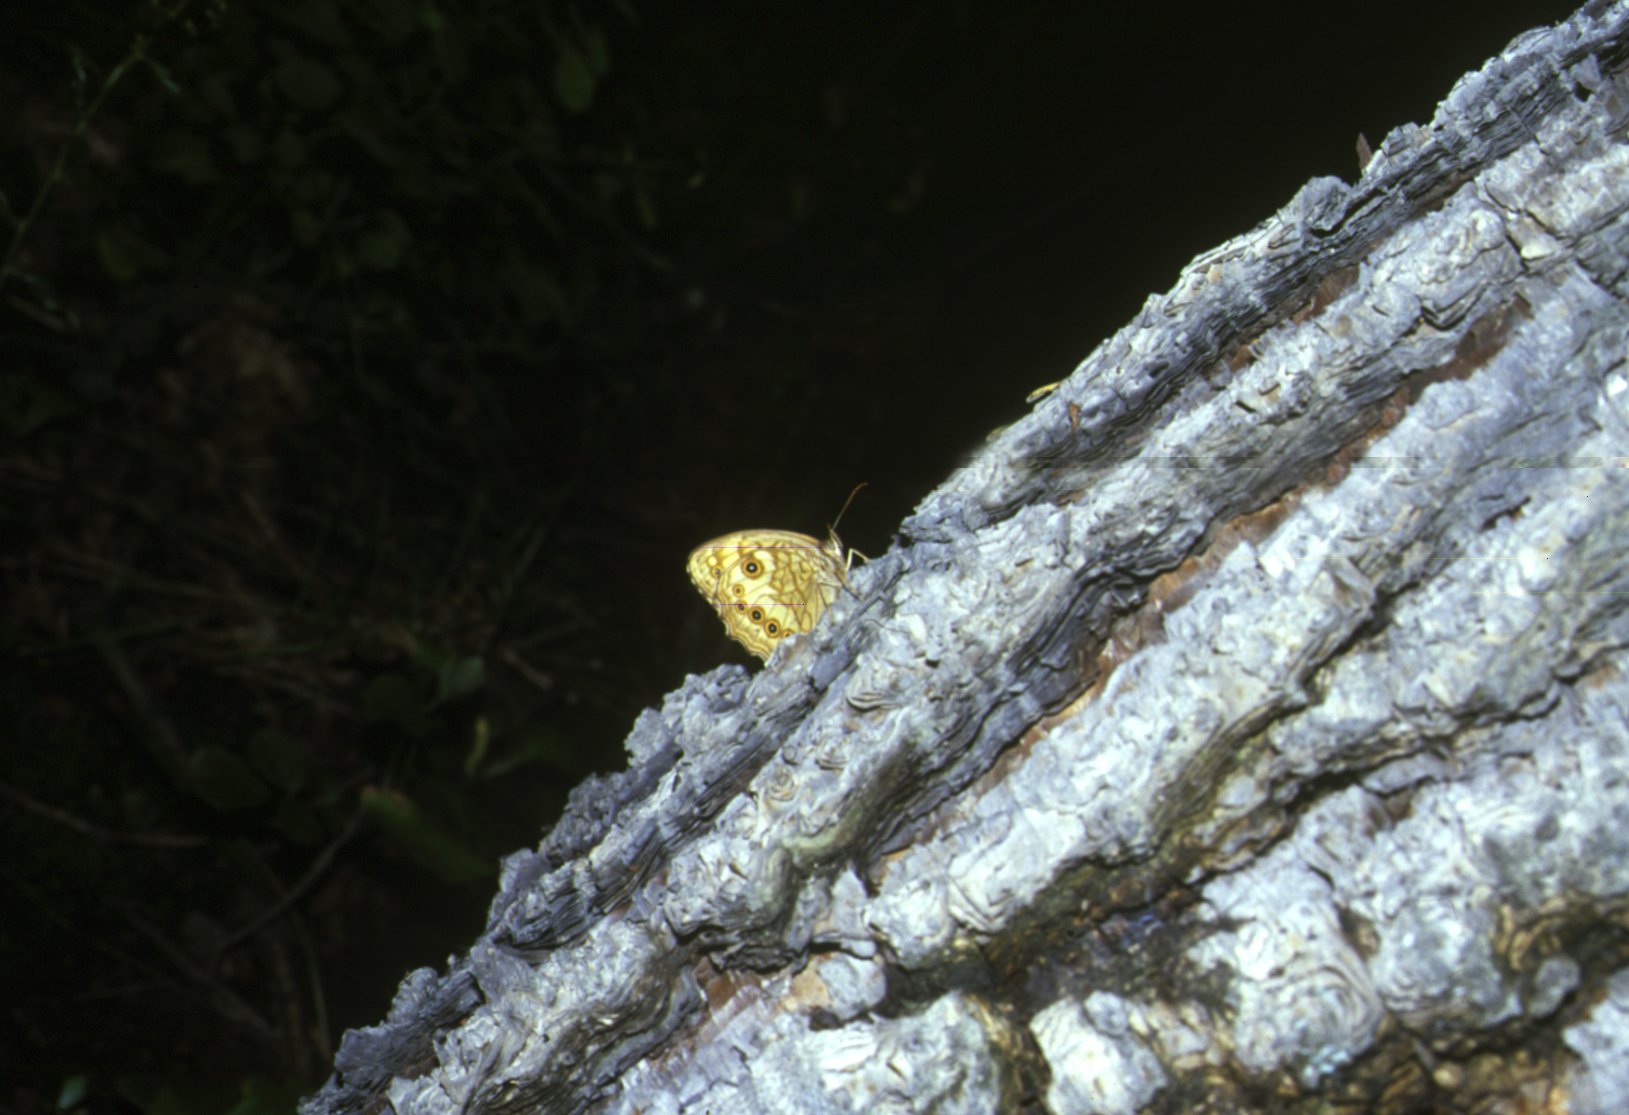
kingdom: Animalia
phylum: Arthropoda
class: Insecta
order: Lepidoptera
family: Nymphalidae
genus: Kirinia
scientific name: Kirinia
